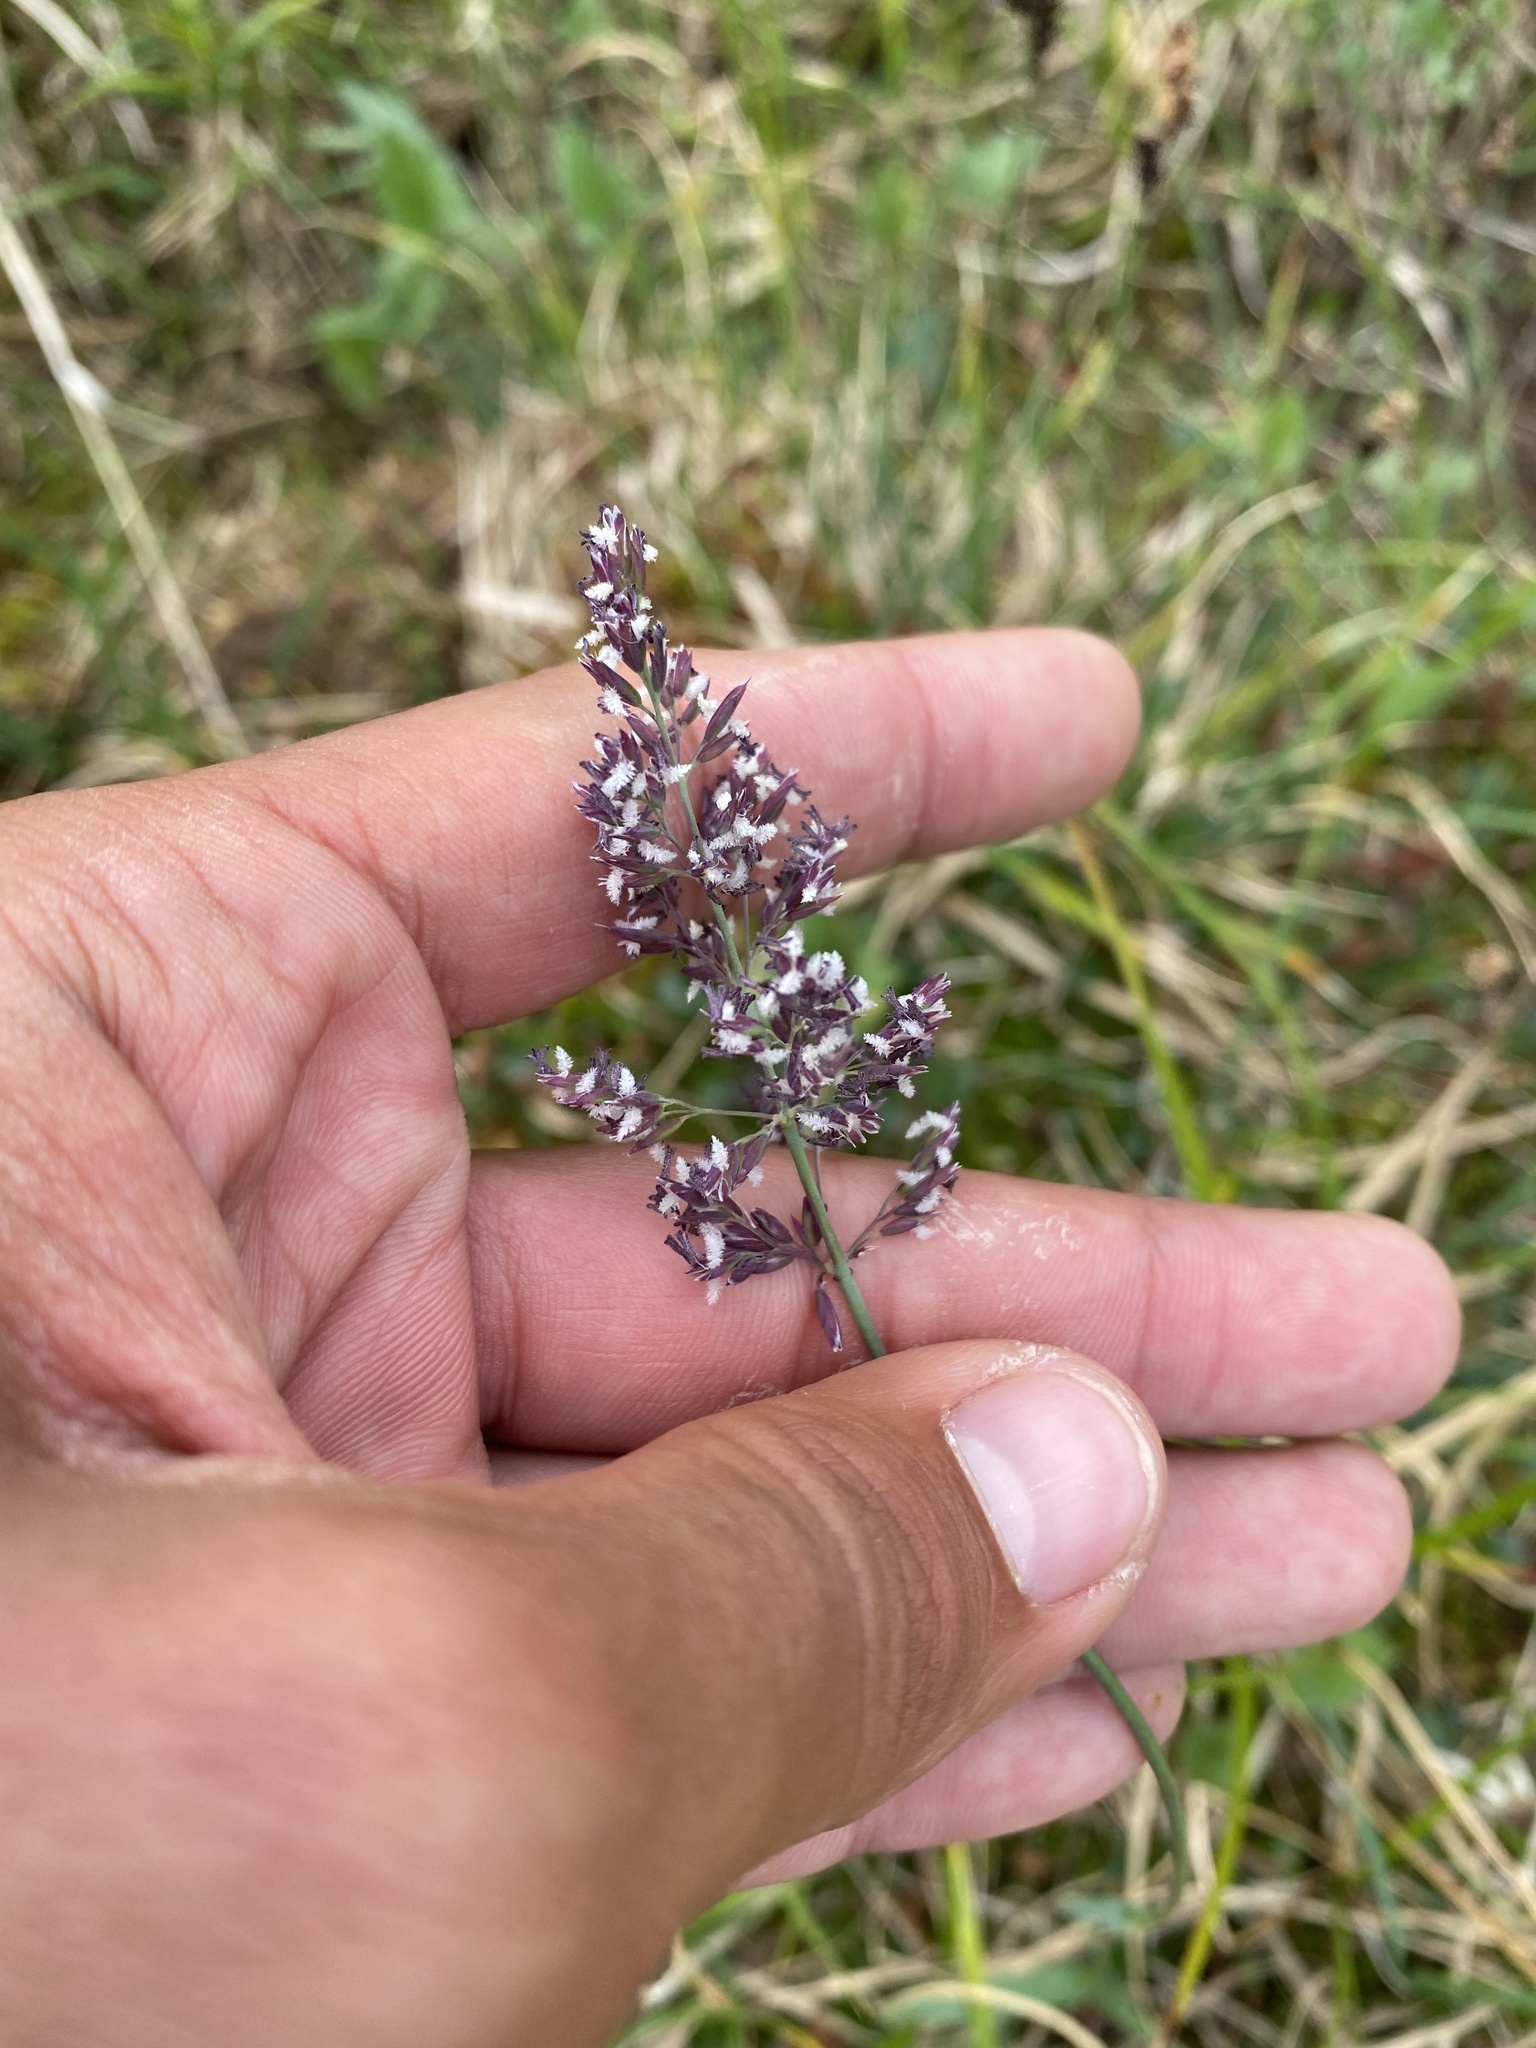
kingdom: Plantae
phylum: Tracheophyta
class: Liliopsida
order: Poales
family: Poaceae
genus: Arctagrostis
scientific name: Arctagrostis latifolia
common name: Arctic grass
